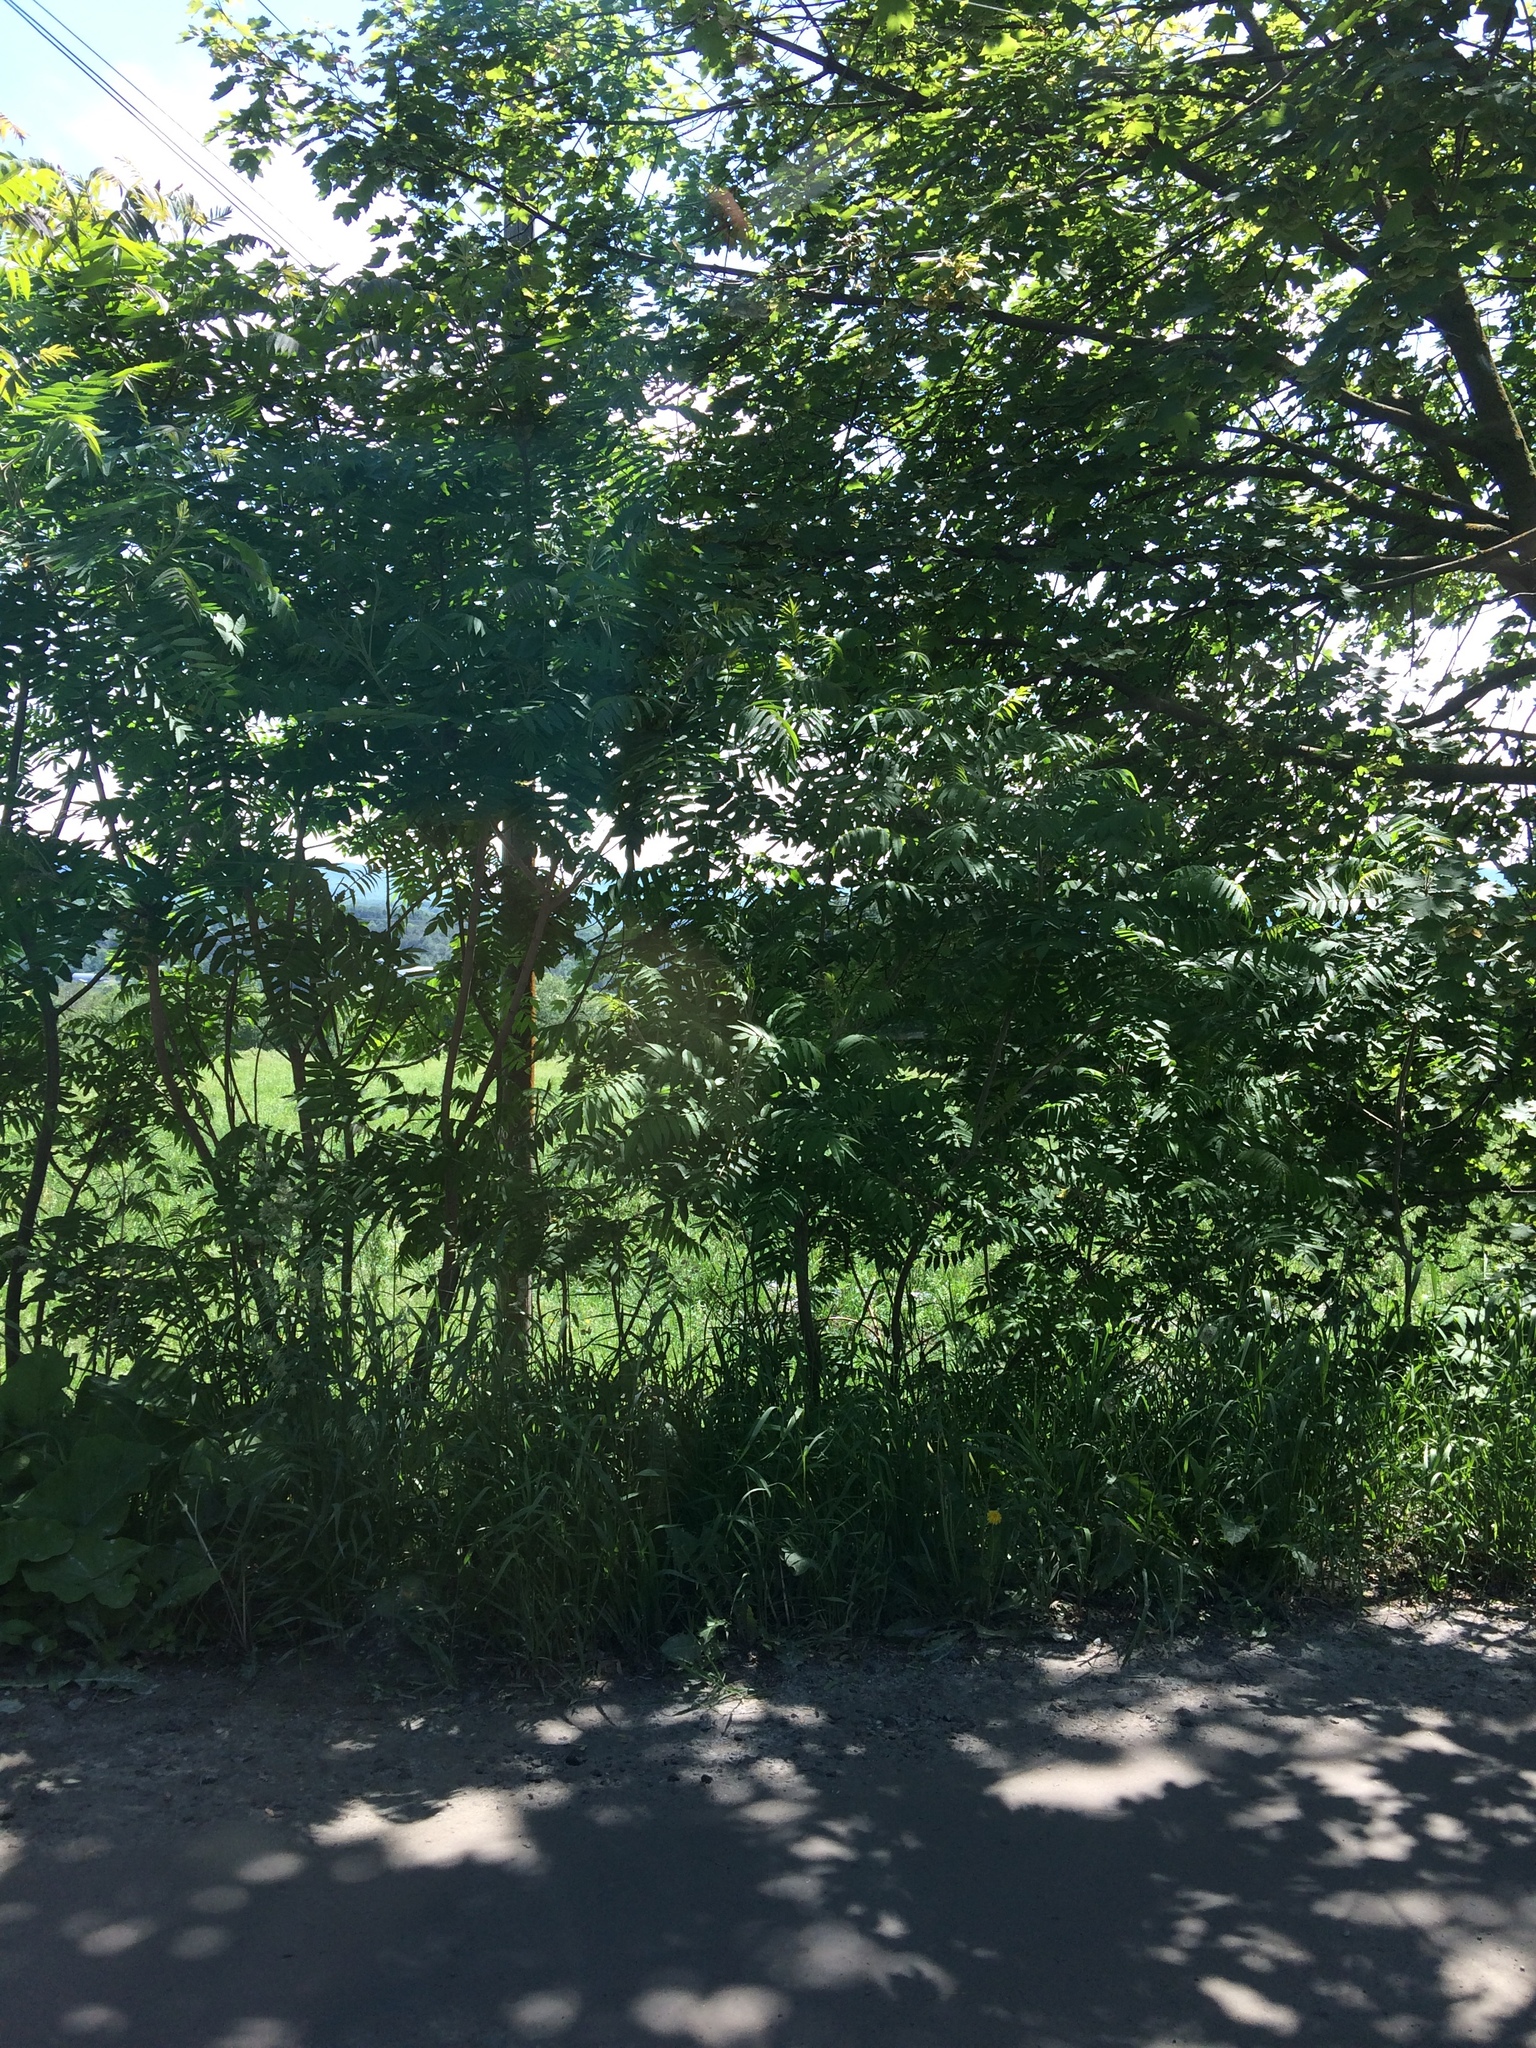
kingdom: Plantae
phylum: Tracheophyta
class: Magnoliopsida
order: Sapindales
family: Anacardiaceae
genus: Rhus
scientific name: Rhus typhina
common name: Staghorn sumac
